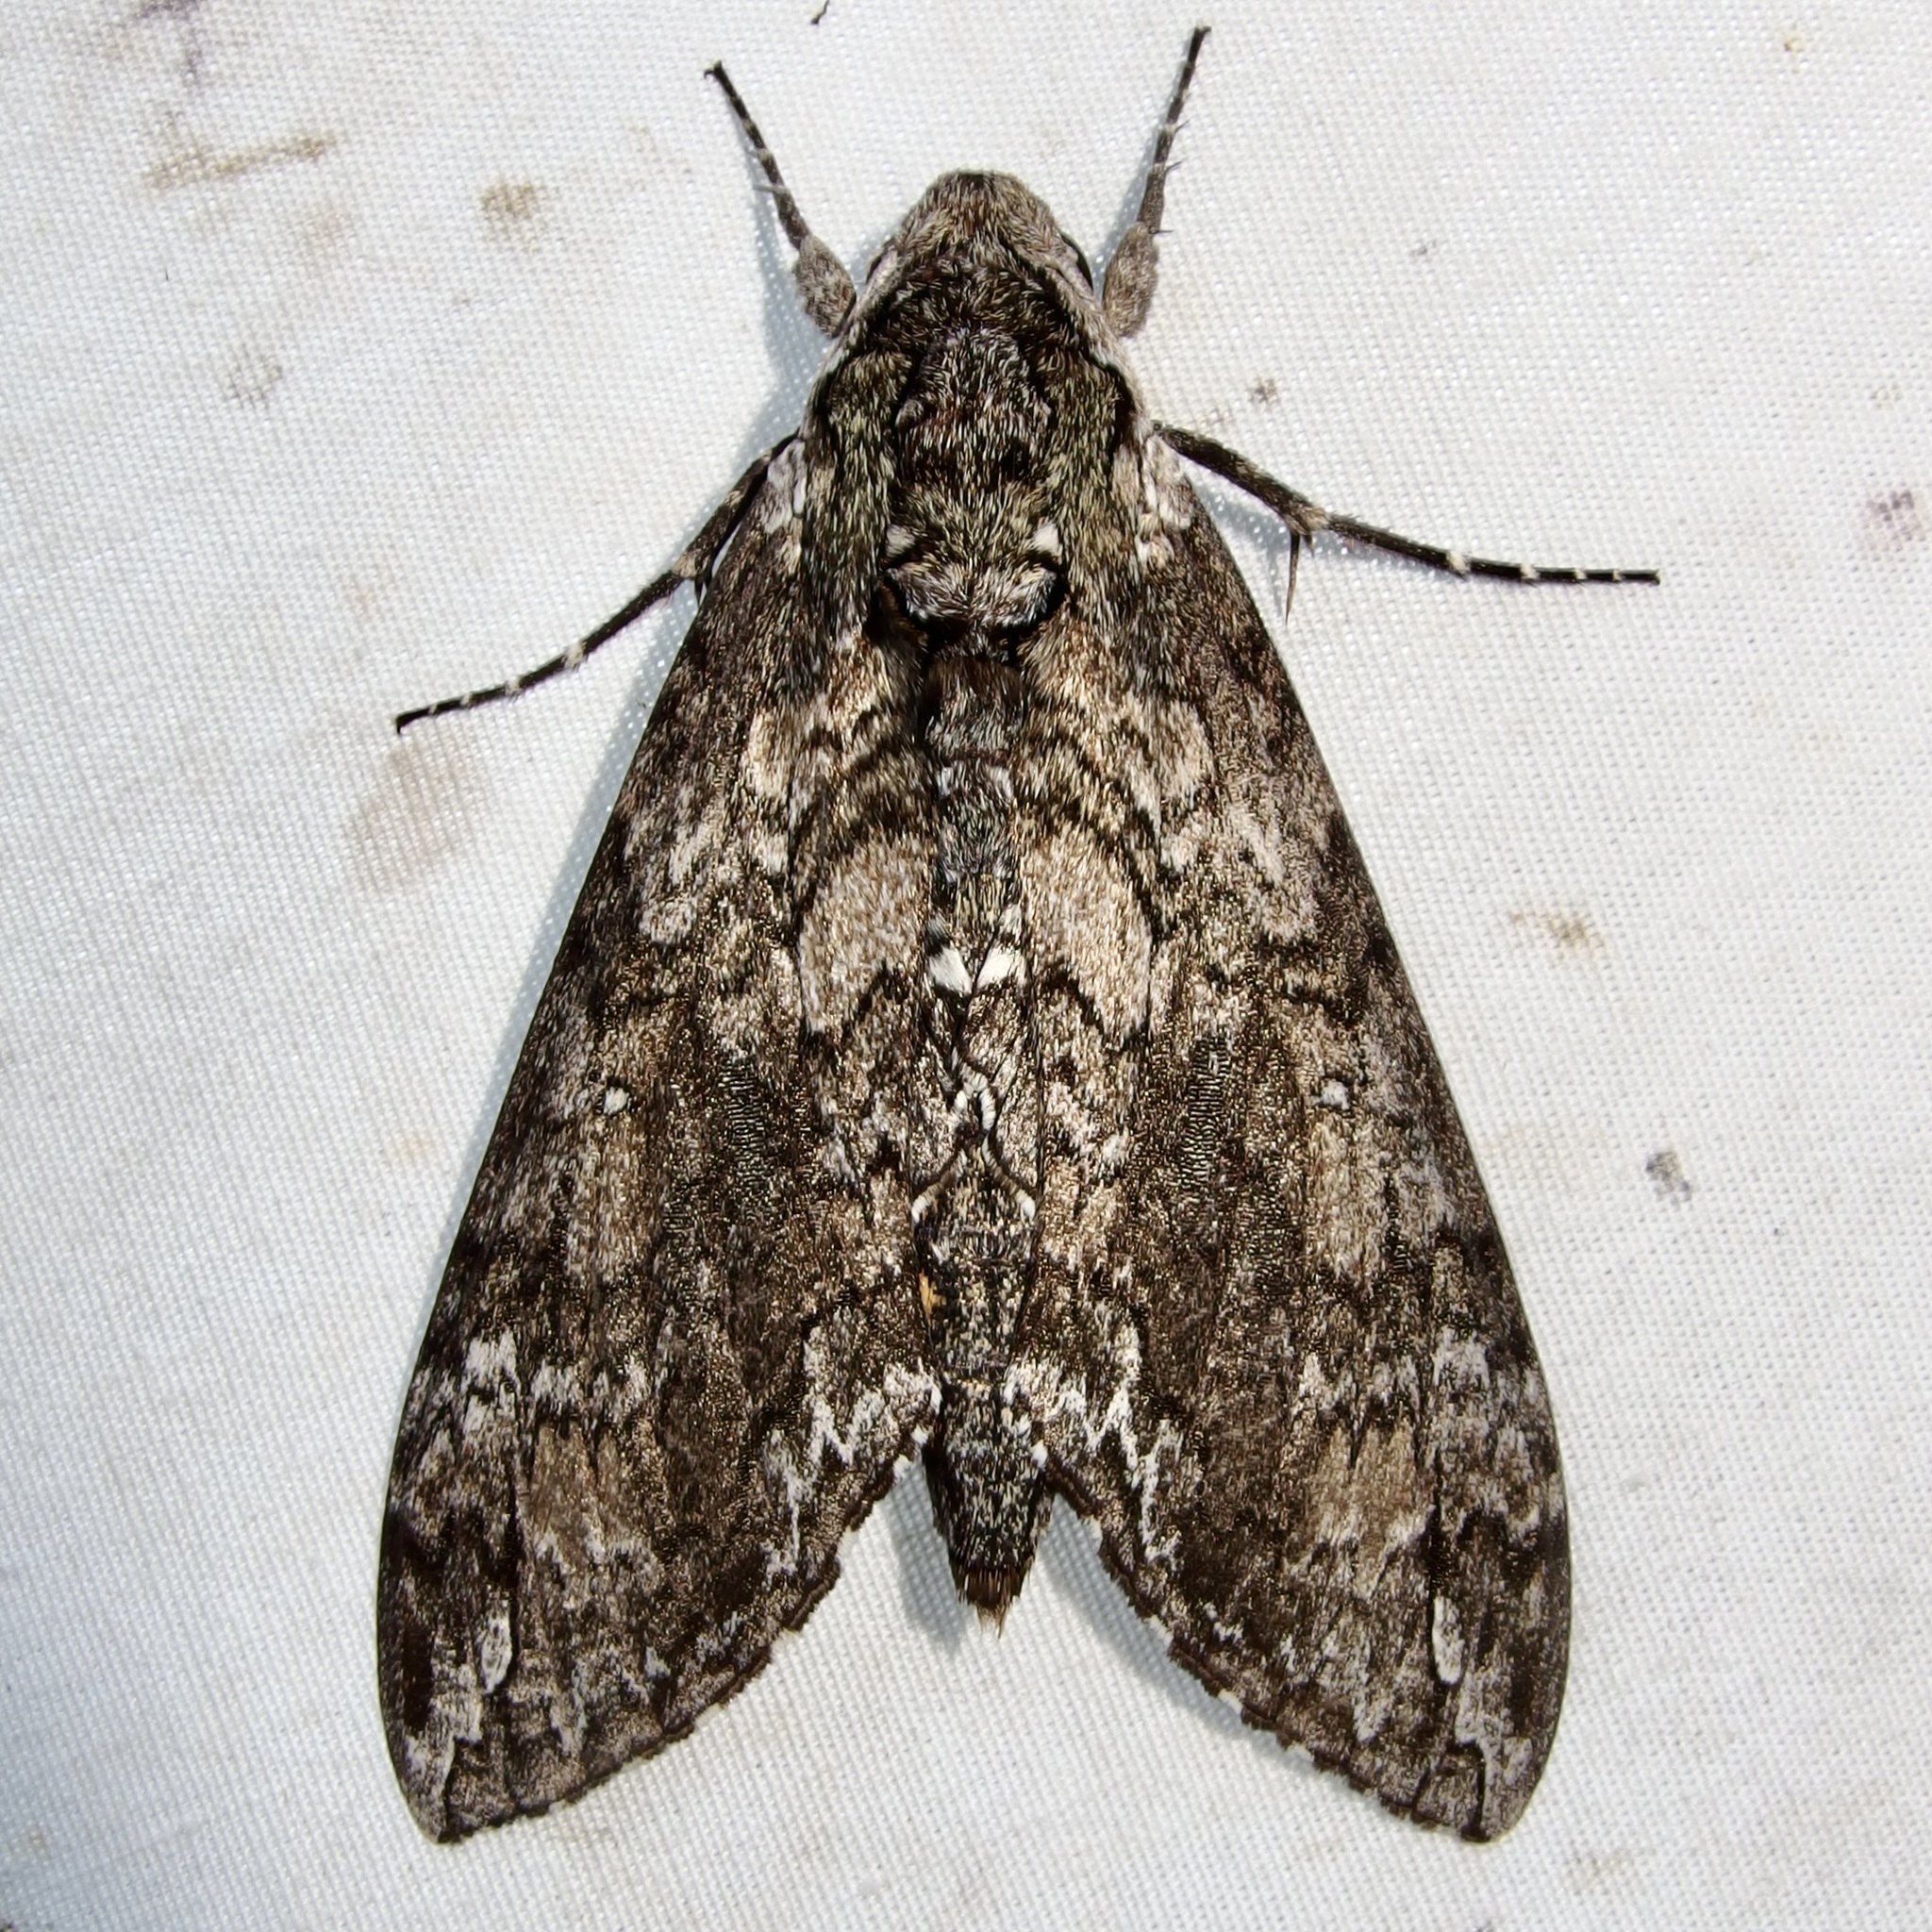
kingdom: Animalia
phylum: Arthropoda
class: Insecta
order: Lepidoptera
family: Sphingidae
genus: Manduca
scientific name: Manduca sexta
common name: Carolina sphinx
